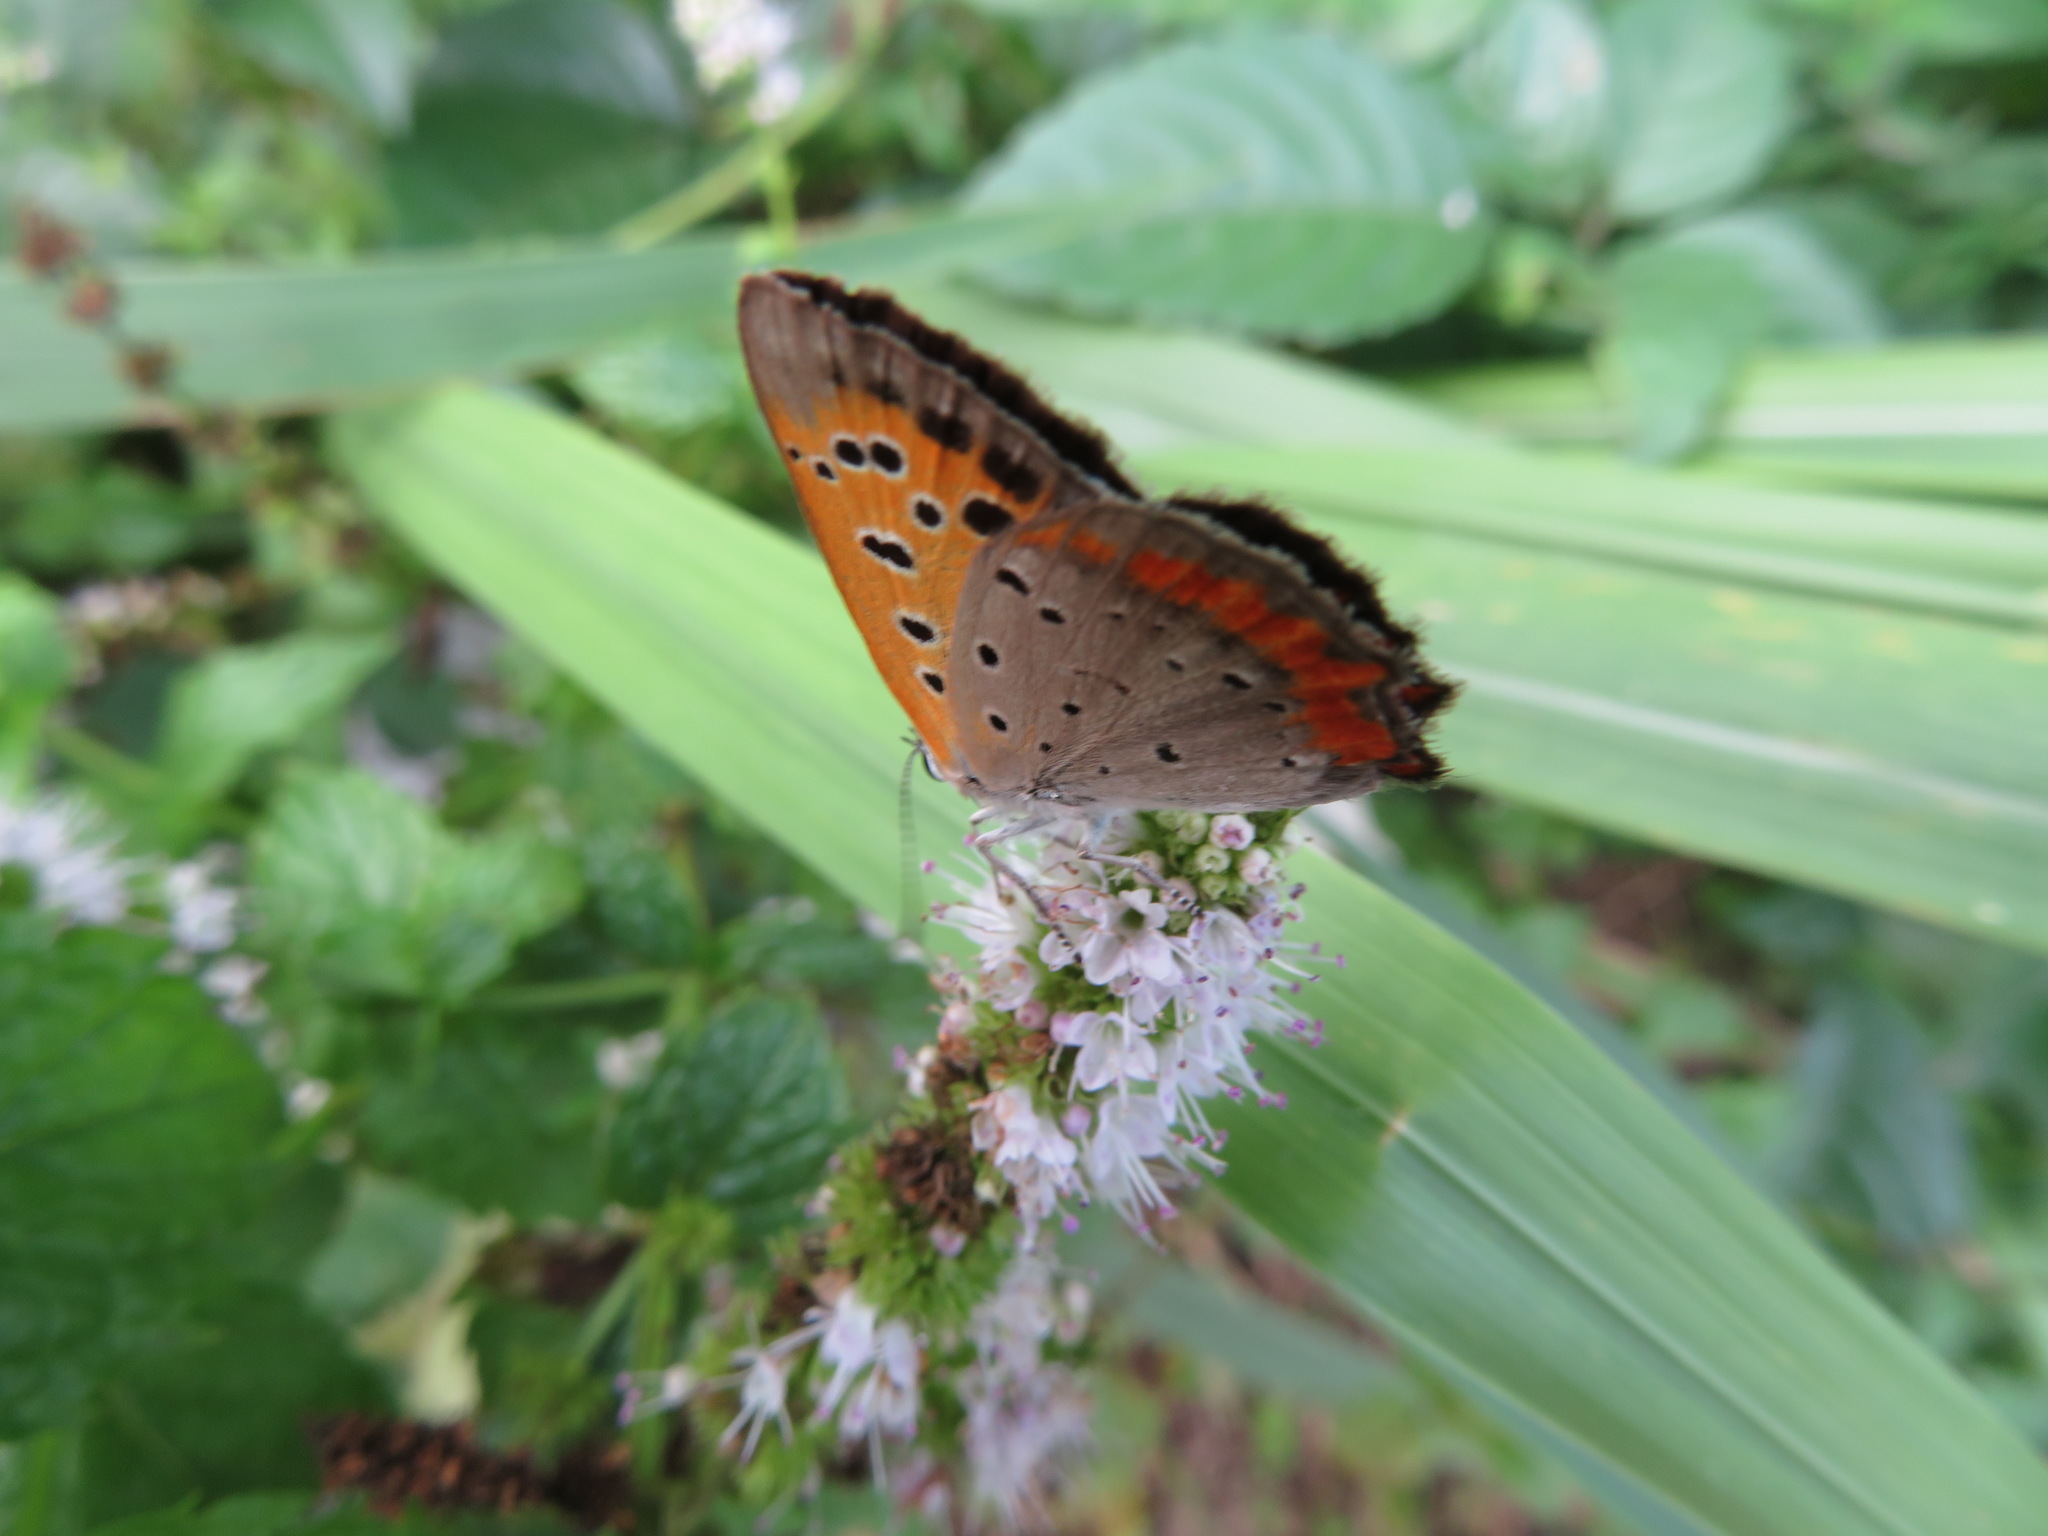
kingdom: Animalia
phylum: Arthropoda
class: Insecta
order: Lepidoptera
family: Lycaenidae
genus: Lycaena
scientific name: Lycaena phlaeas
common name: Small copper
